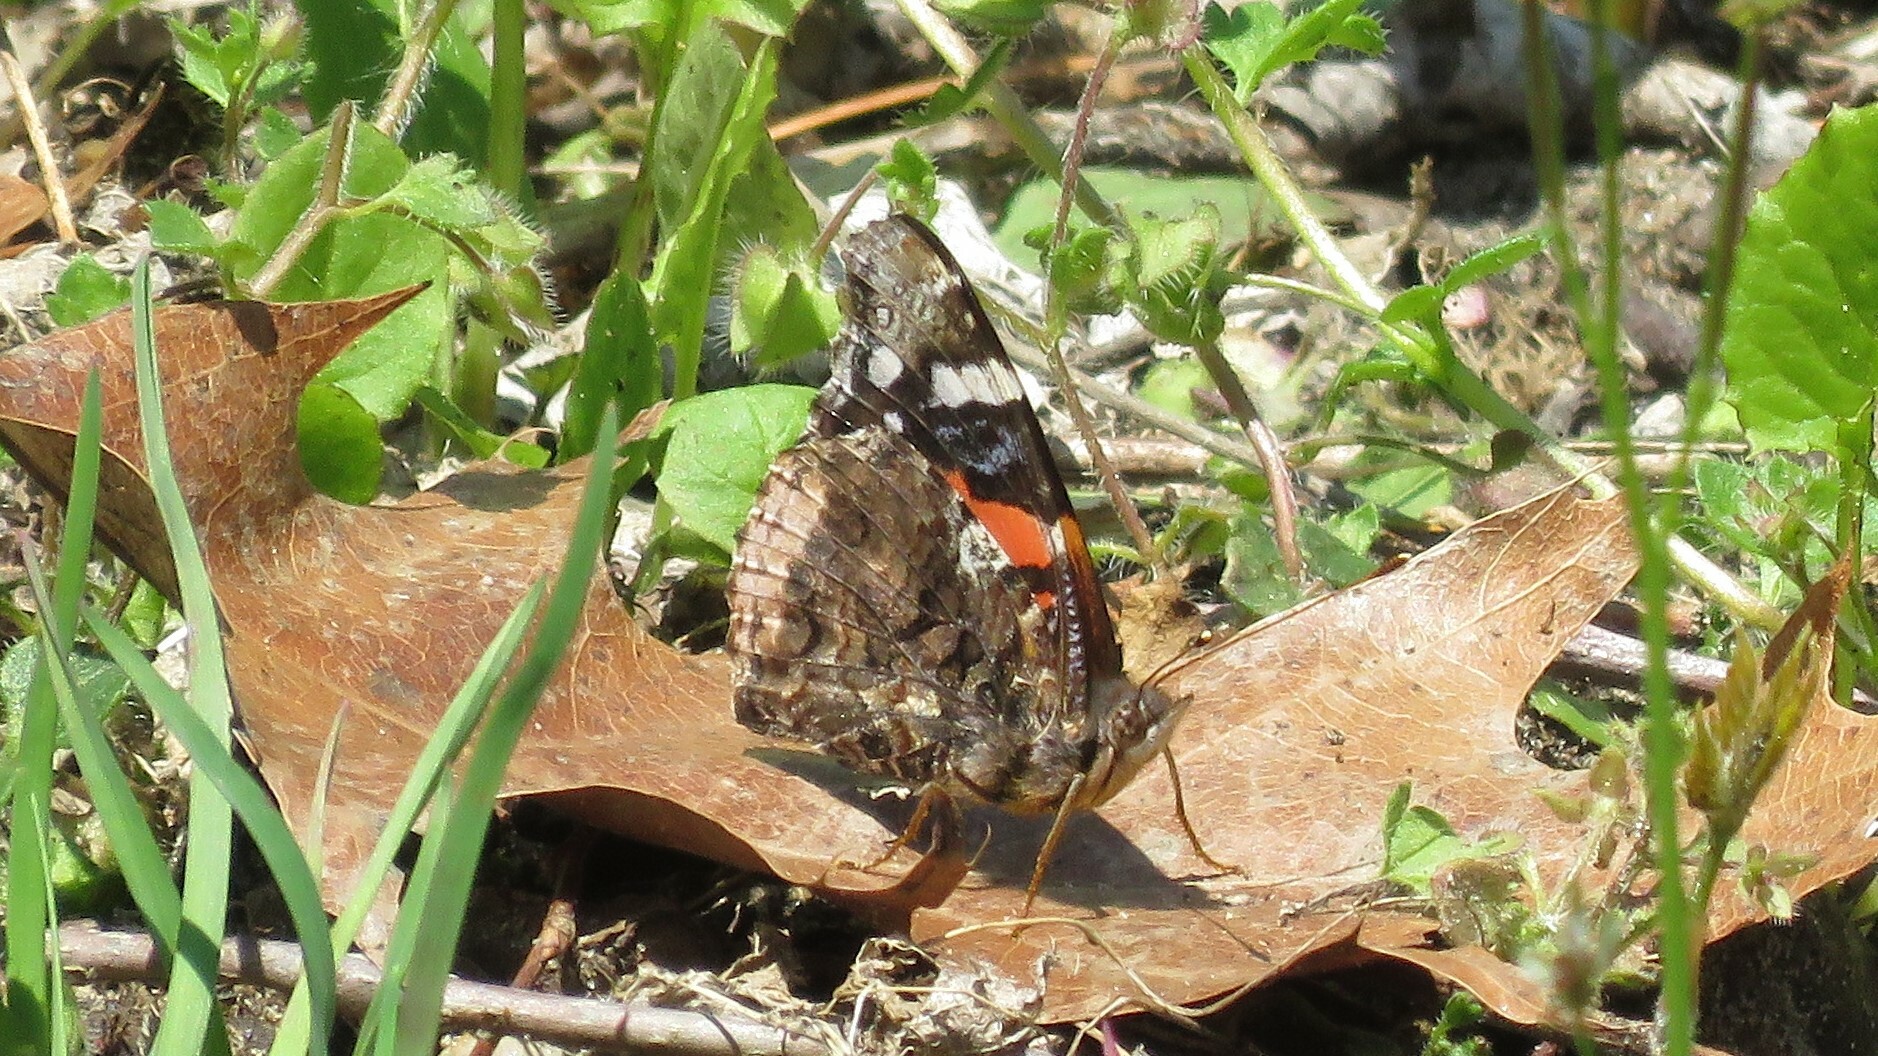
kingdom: Animalia
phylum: Arthropoda
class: Insecta
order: Lepidoptera
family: Nymphalidae
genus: Vanessa
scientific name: Vanessa atalanta
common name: Red admiral
